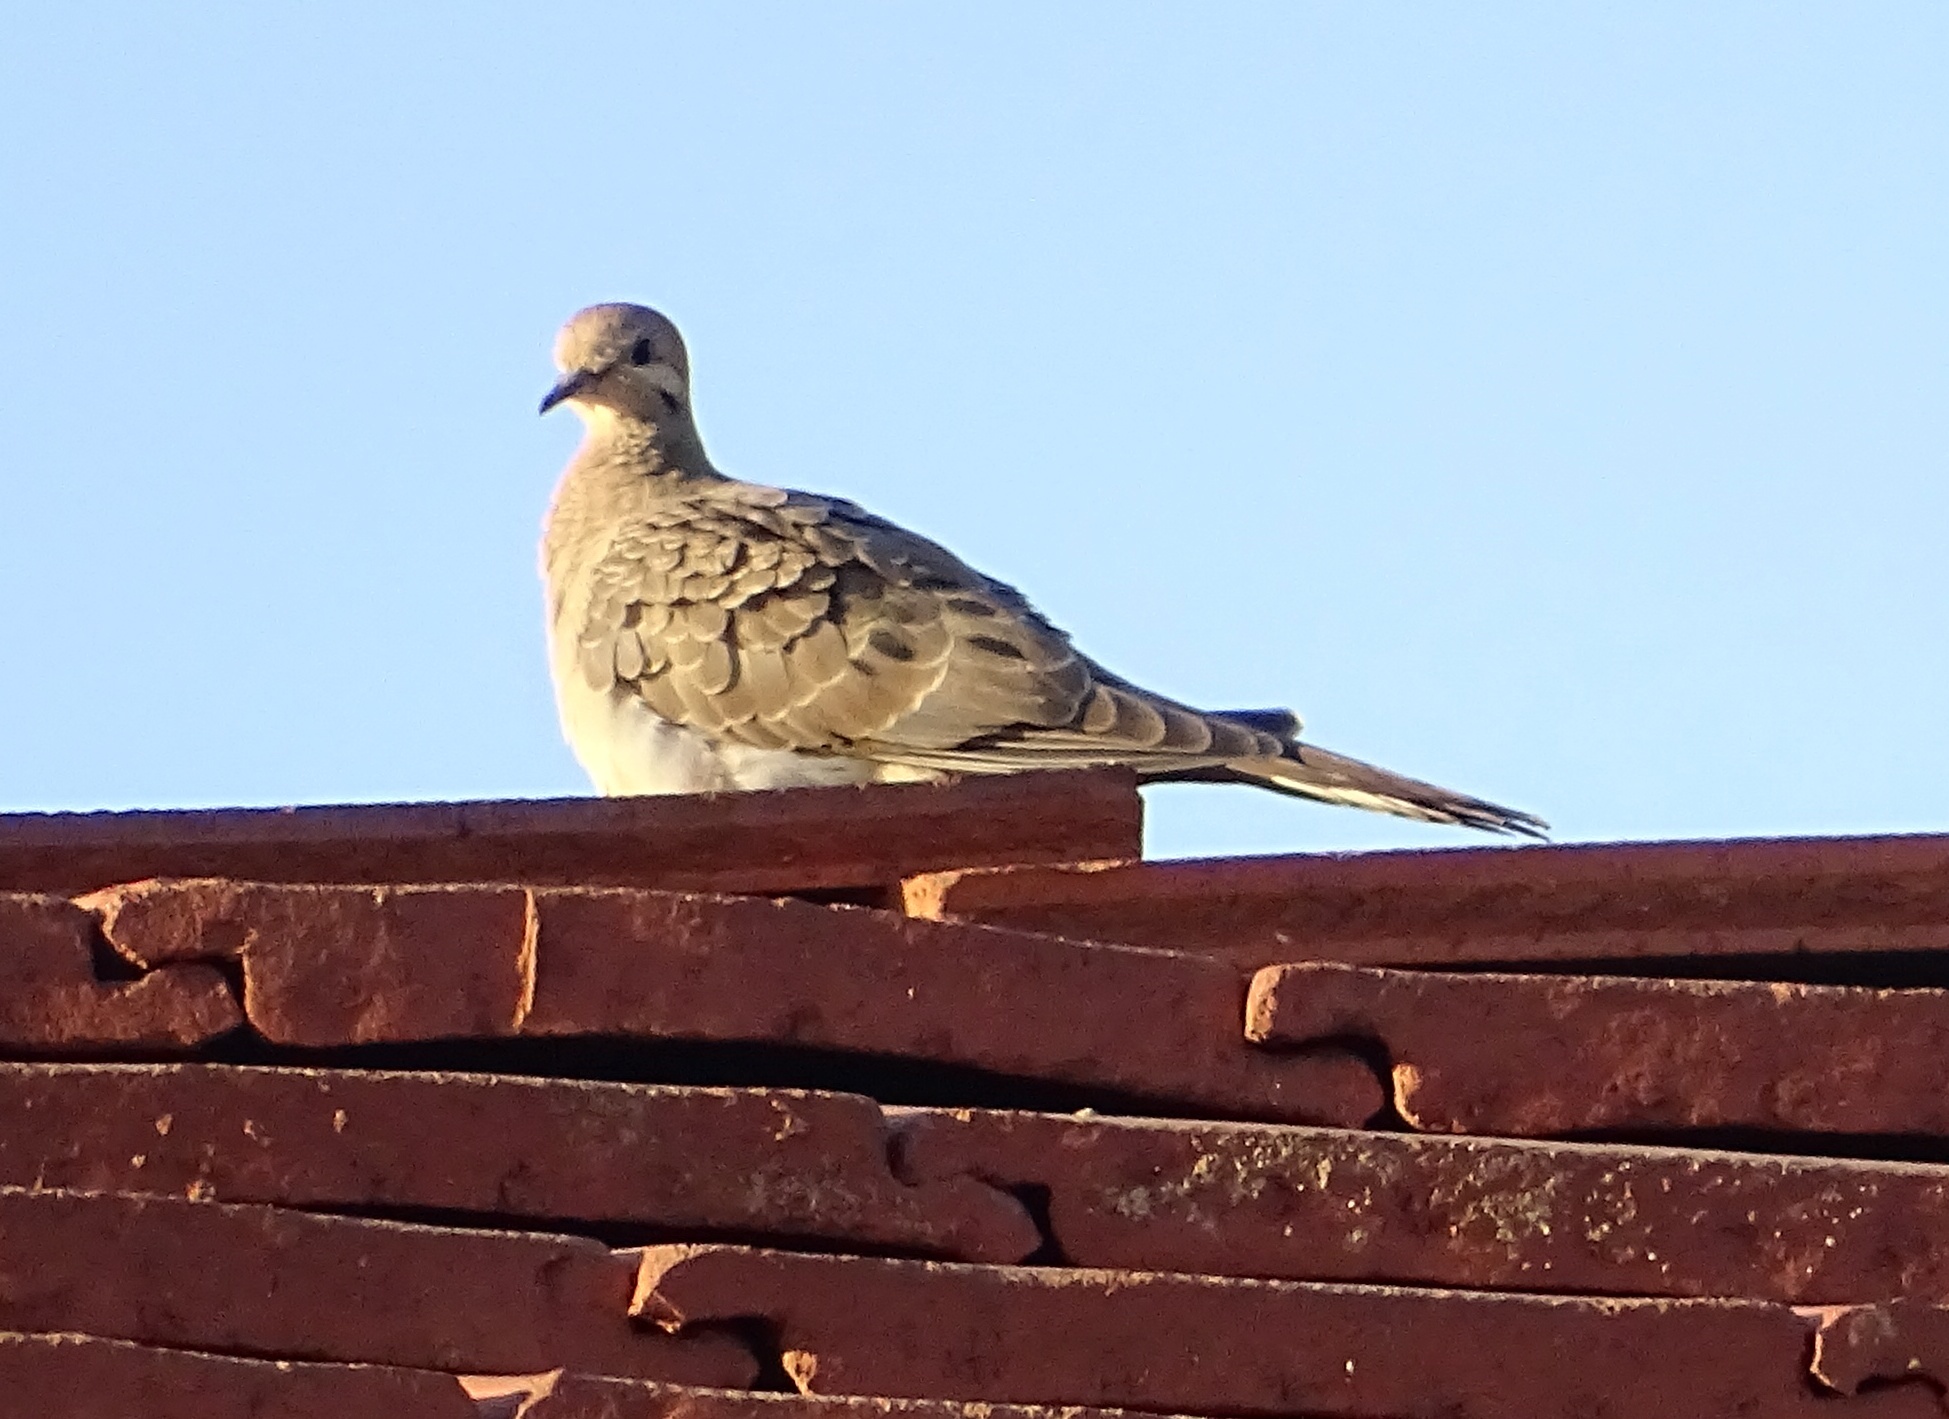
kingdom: Animalia
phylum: Chordata
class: Aves
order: Columbiformes
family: Columbidae
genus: Zenaida
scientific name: Zenaida macroura
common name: Mourning dove
